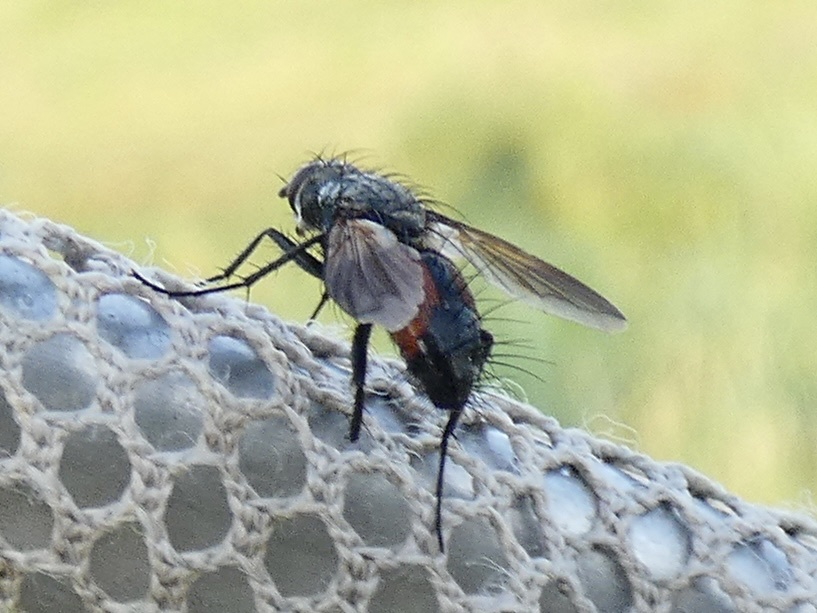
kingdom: Animalia
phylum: Arthropoda
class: Insecta
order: Diptera
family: Tachinidae
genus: Eriothrix
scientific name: Eriothrix rufomaculatus
